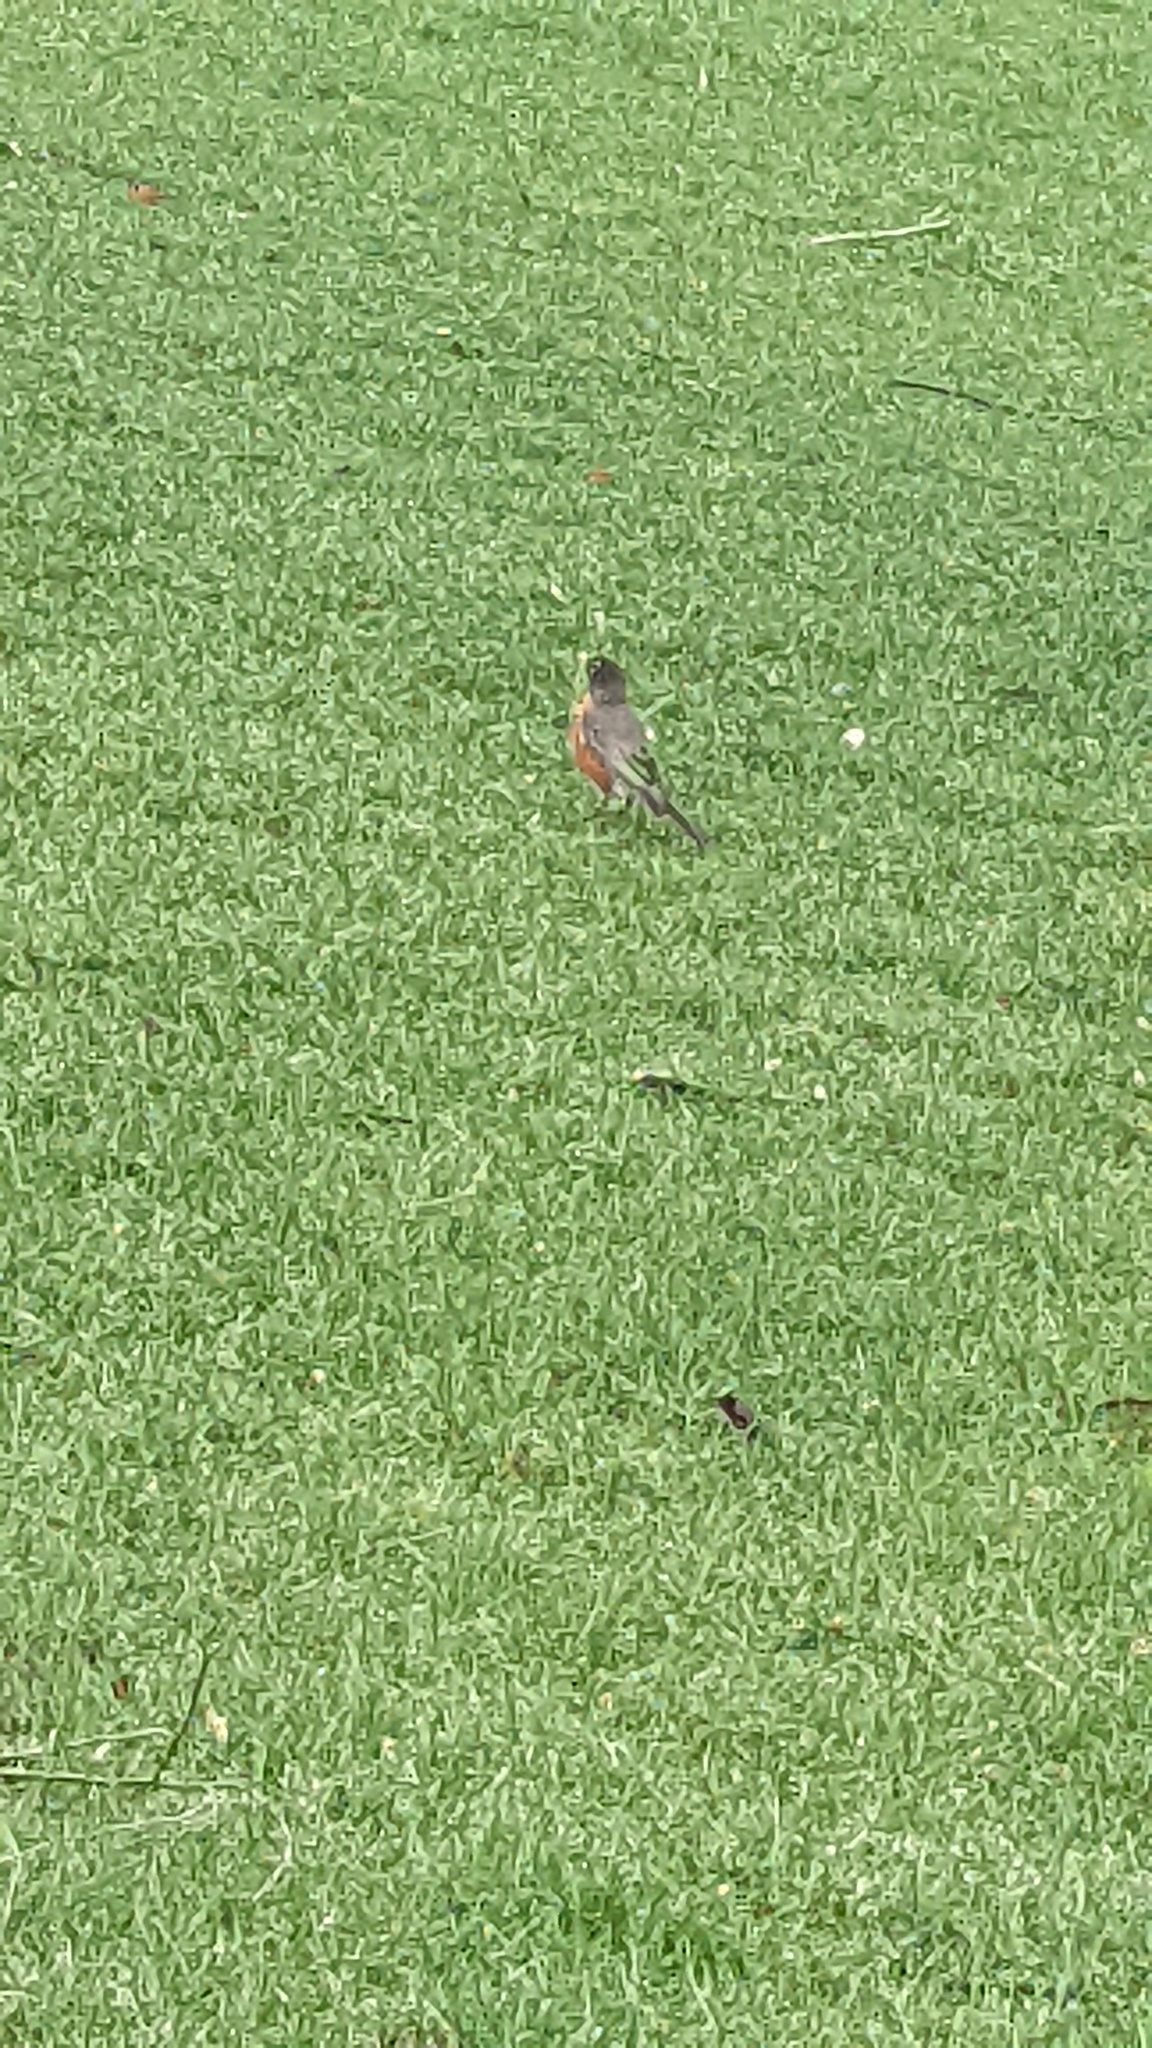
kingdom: Animalia
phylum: Chordata
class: Aves
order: Passeriformes
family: Turdidae
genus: Turdus
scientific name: Turdus migratorius
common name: American robin
